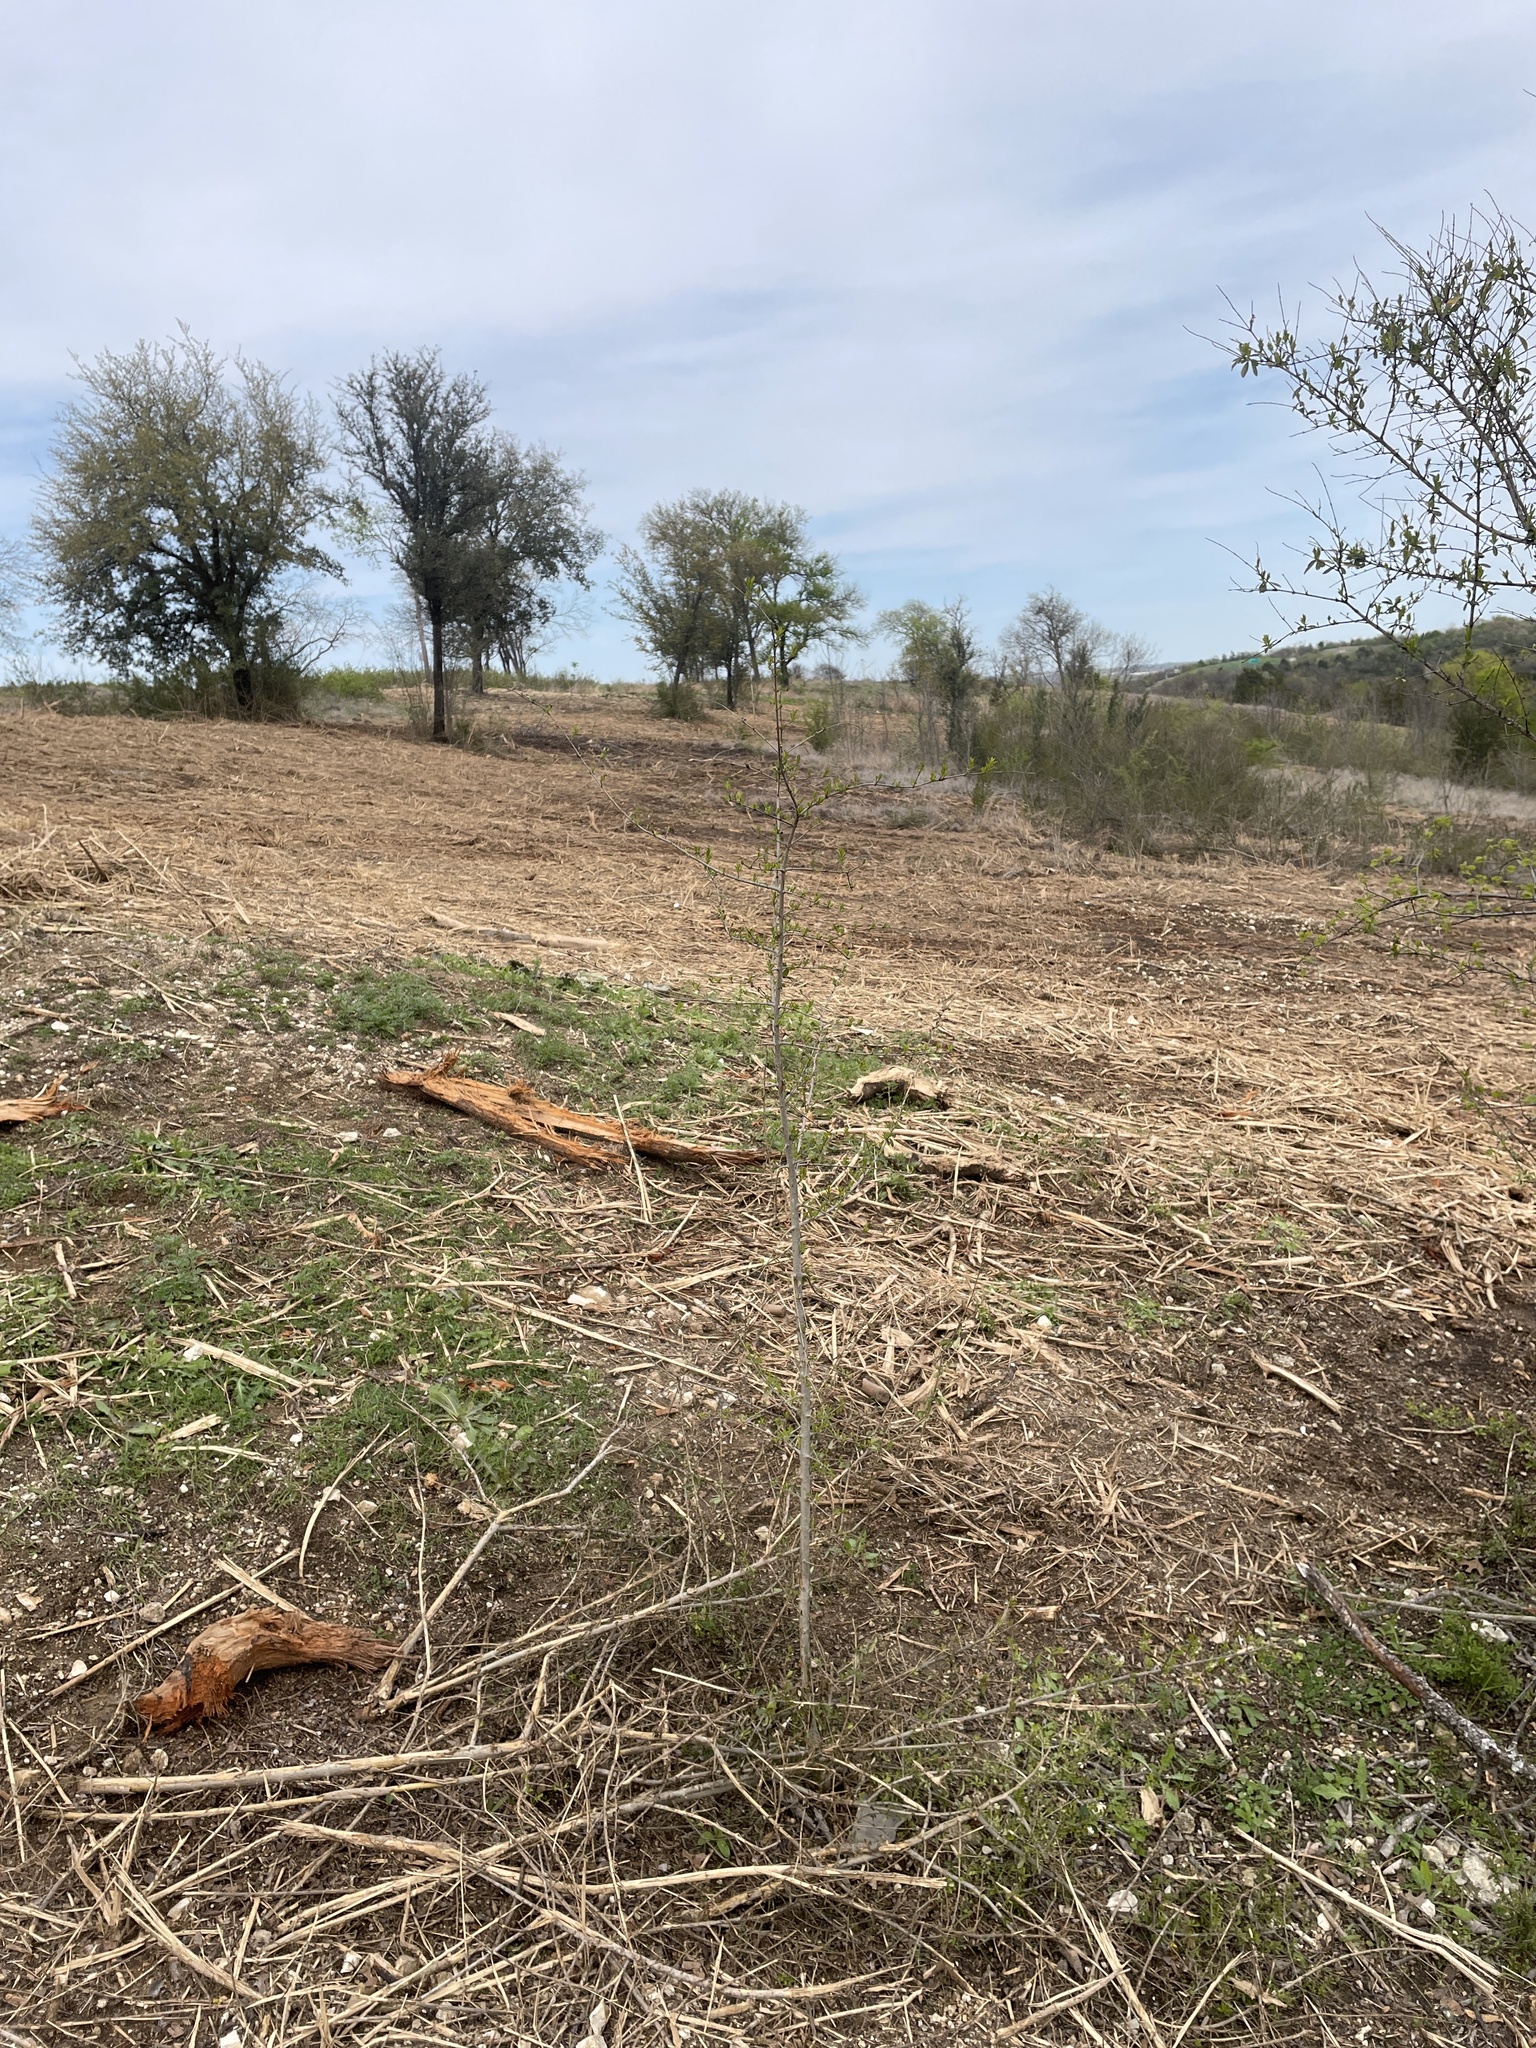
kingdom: Plantae
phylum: Tracheophyta
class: Magnoliopsida
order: Lamiales
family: Oleaceae
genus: Ligustrum
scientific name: Ligustrum quihoui
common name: Waxyleaf privet
